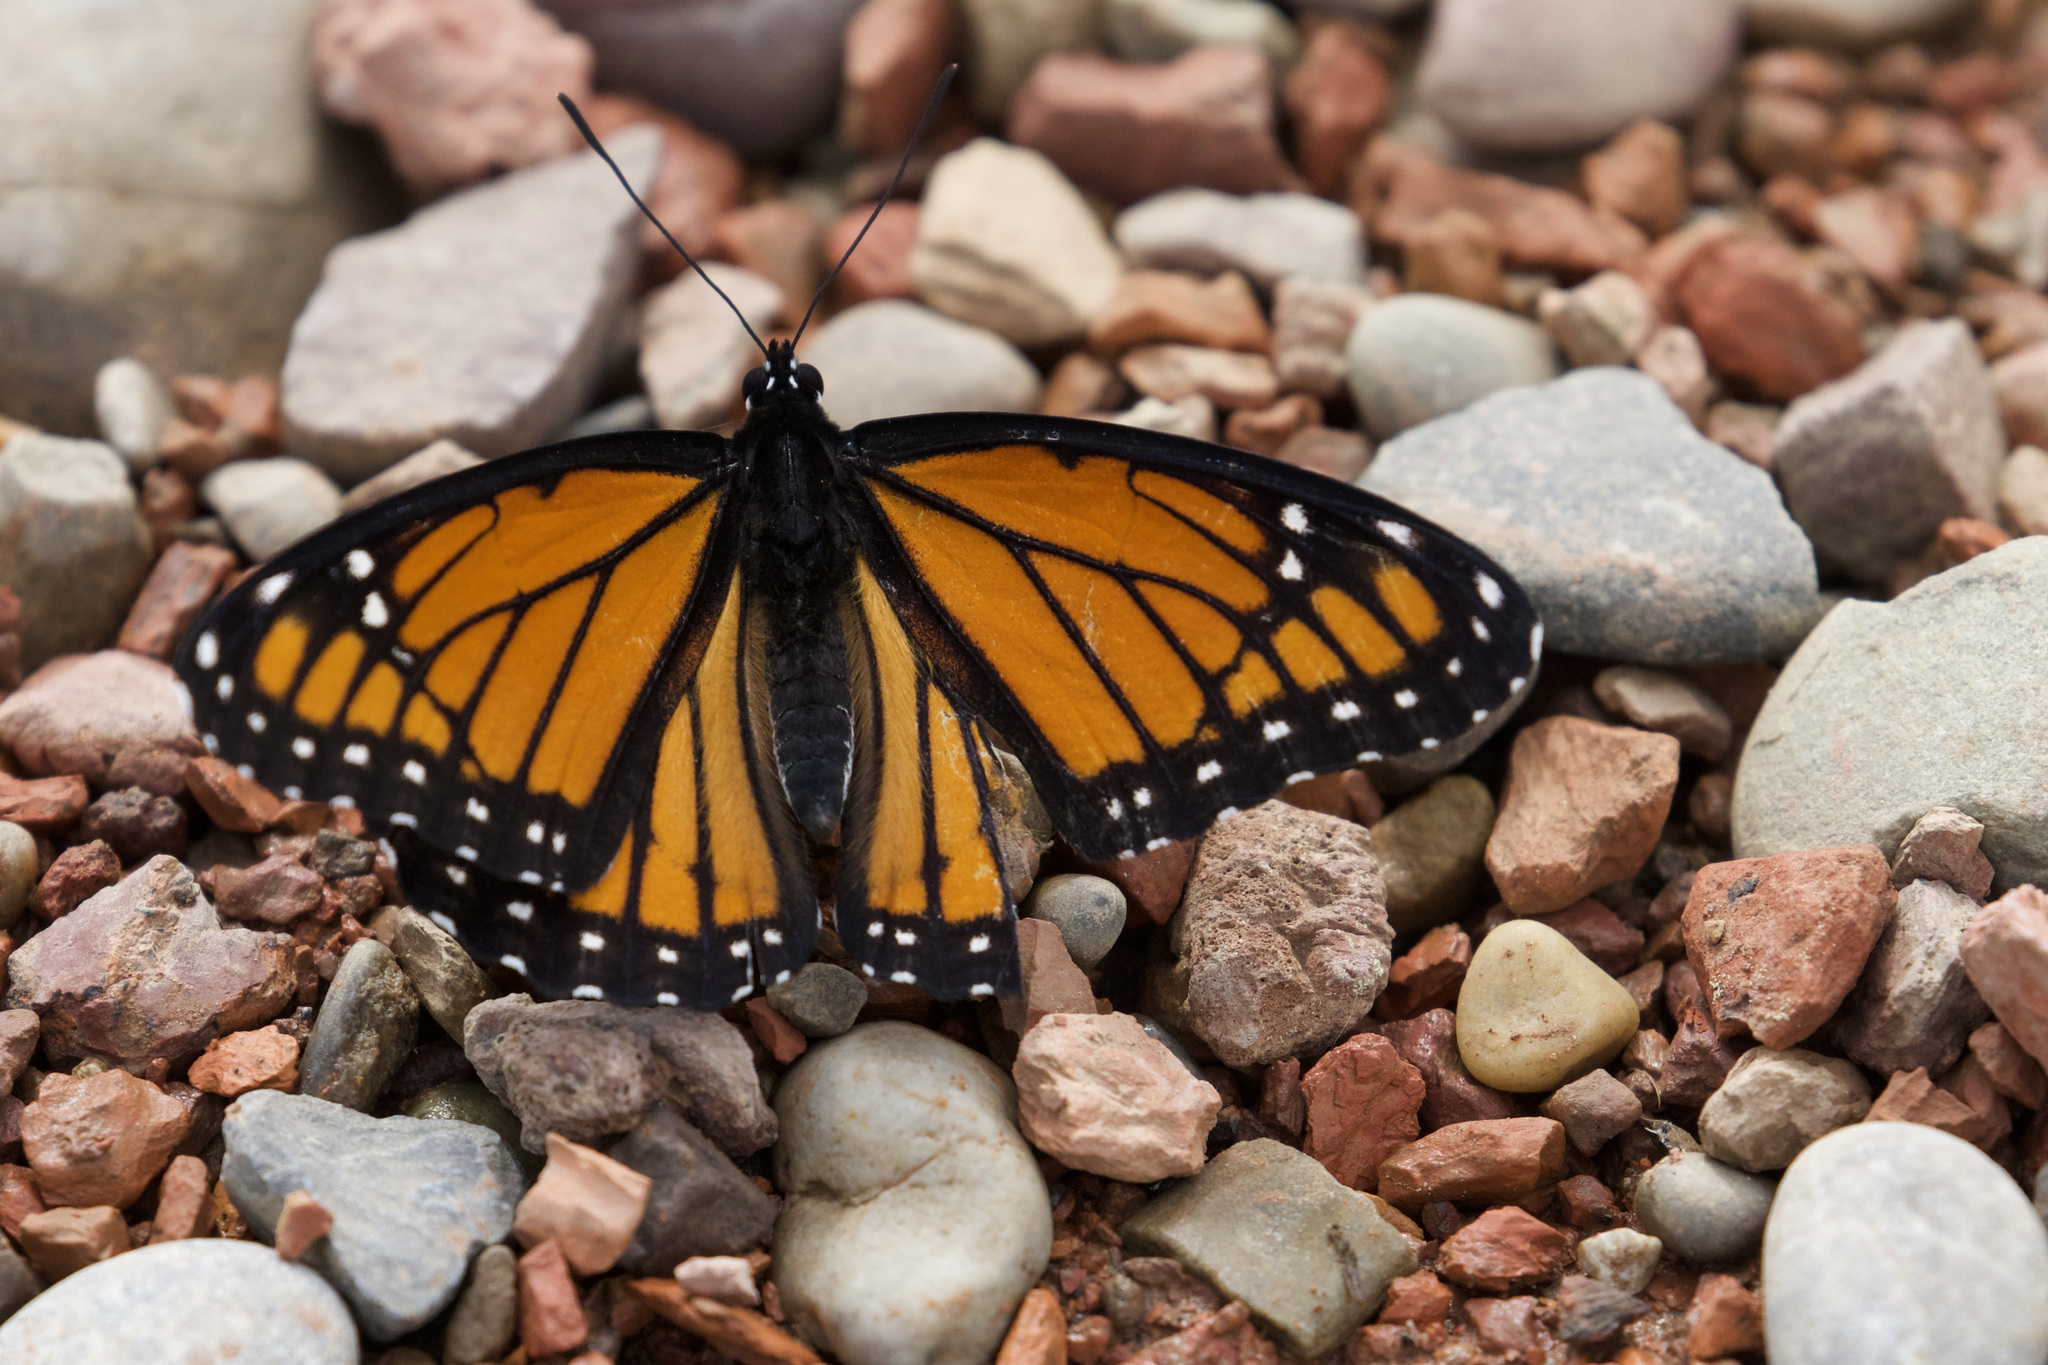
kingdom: Animalia
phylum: Arthropoda
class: Insecta
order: Lepidoptera
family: Nymphalidae
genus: Limenitis
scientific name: Limenitis archippus
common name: Viceroy
